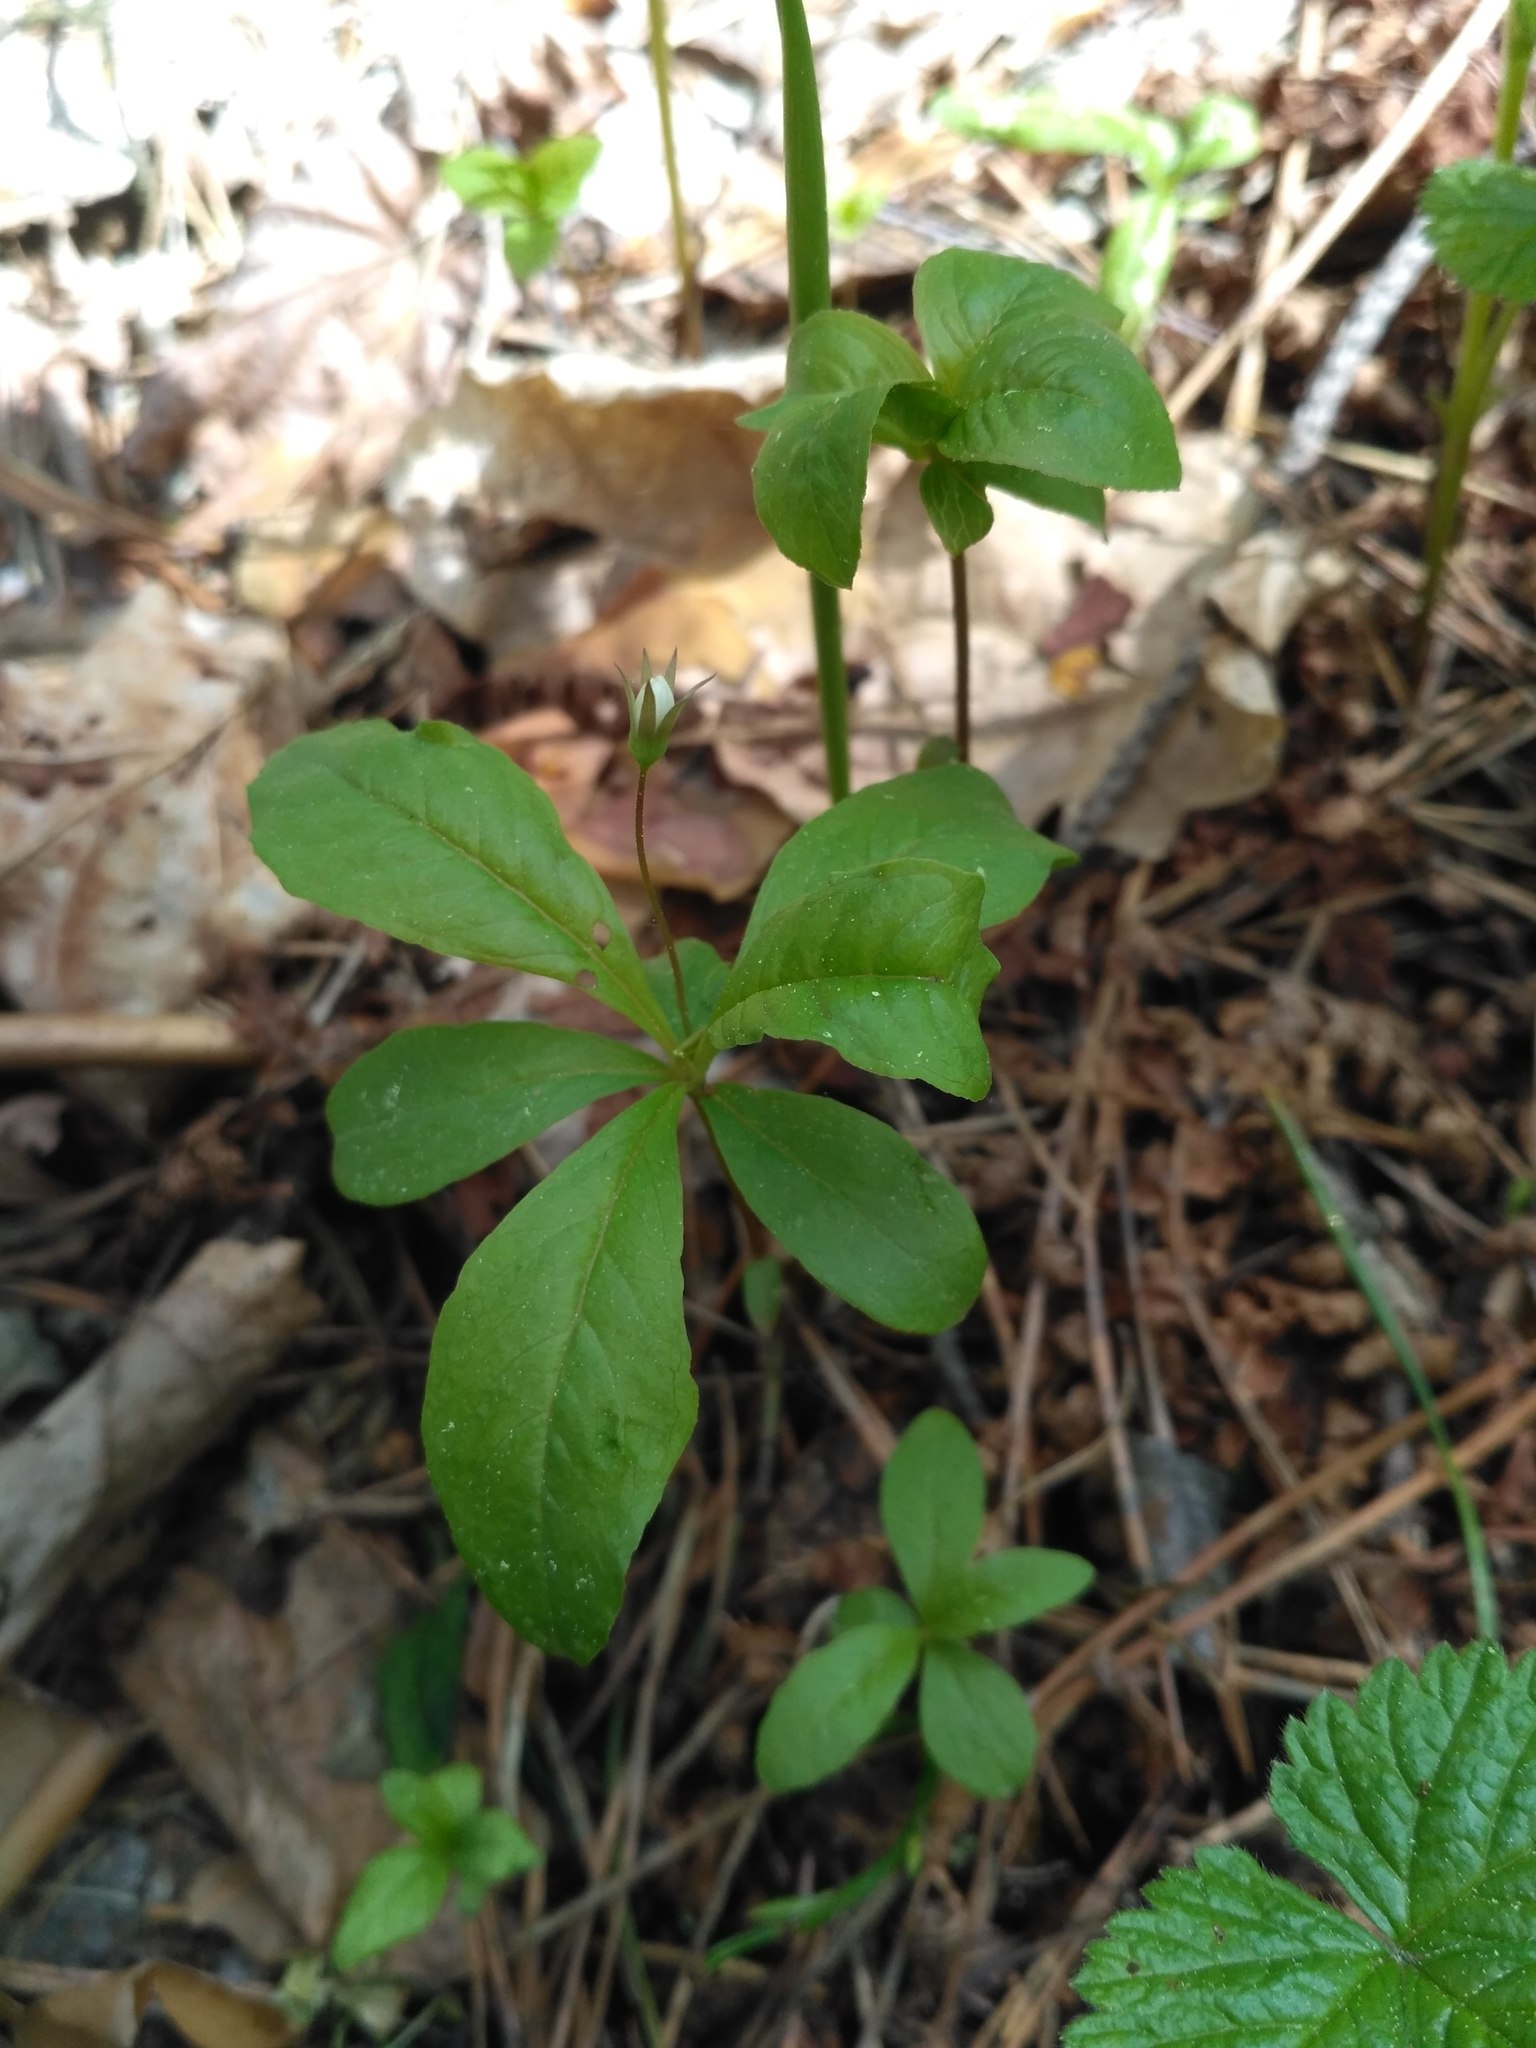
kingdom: Plantae
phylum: Tracheophyta
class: Magnoliopsida
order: Ericales
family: Primulaceae
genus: Lysimachia
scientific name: Lysimachia europaea
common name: Arctic starflower
